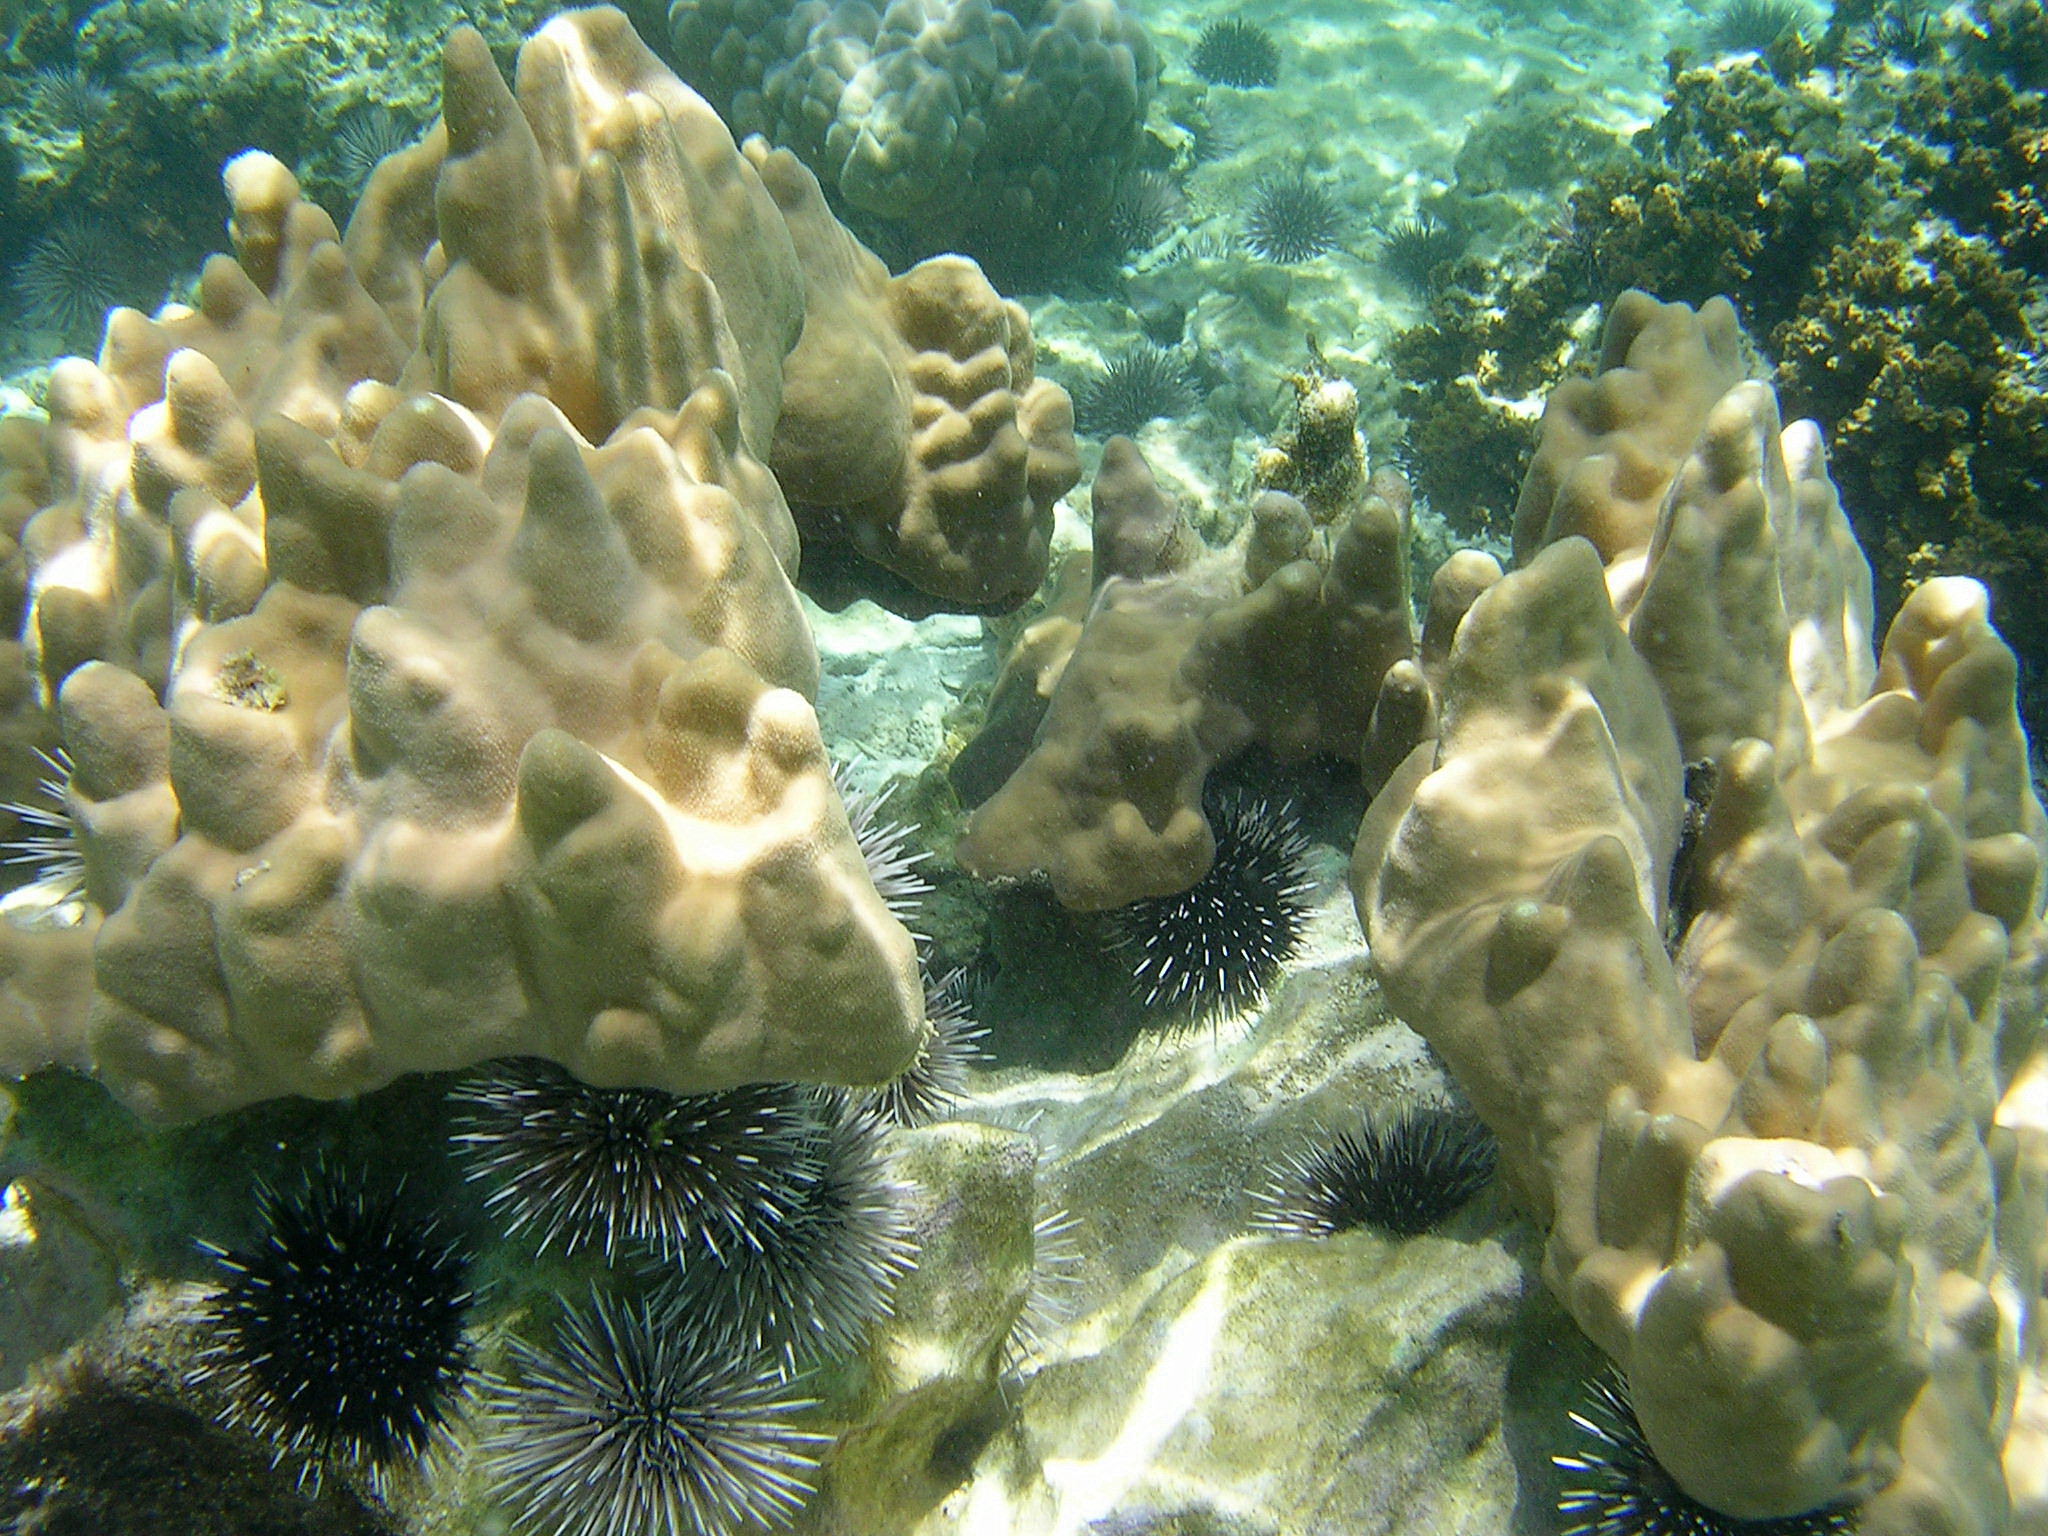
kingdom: Animalia
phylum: Echinodermata
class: Echinoidea
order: Camarodonta
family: Echinometridae
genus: Echinometra
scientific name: Echinometra mathaei
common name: Rock-boring urchin
